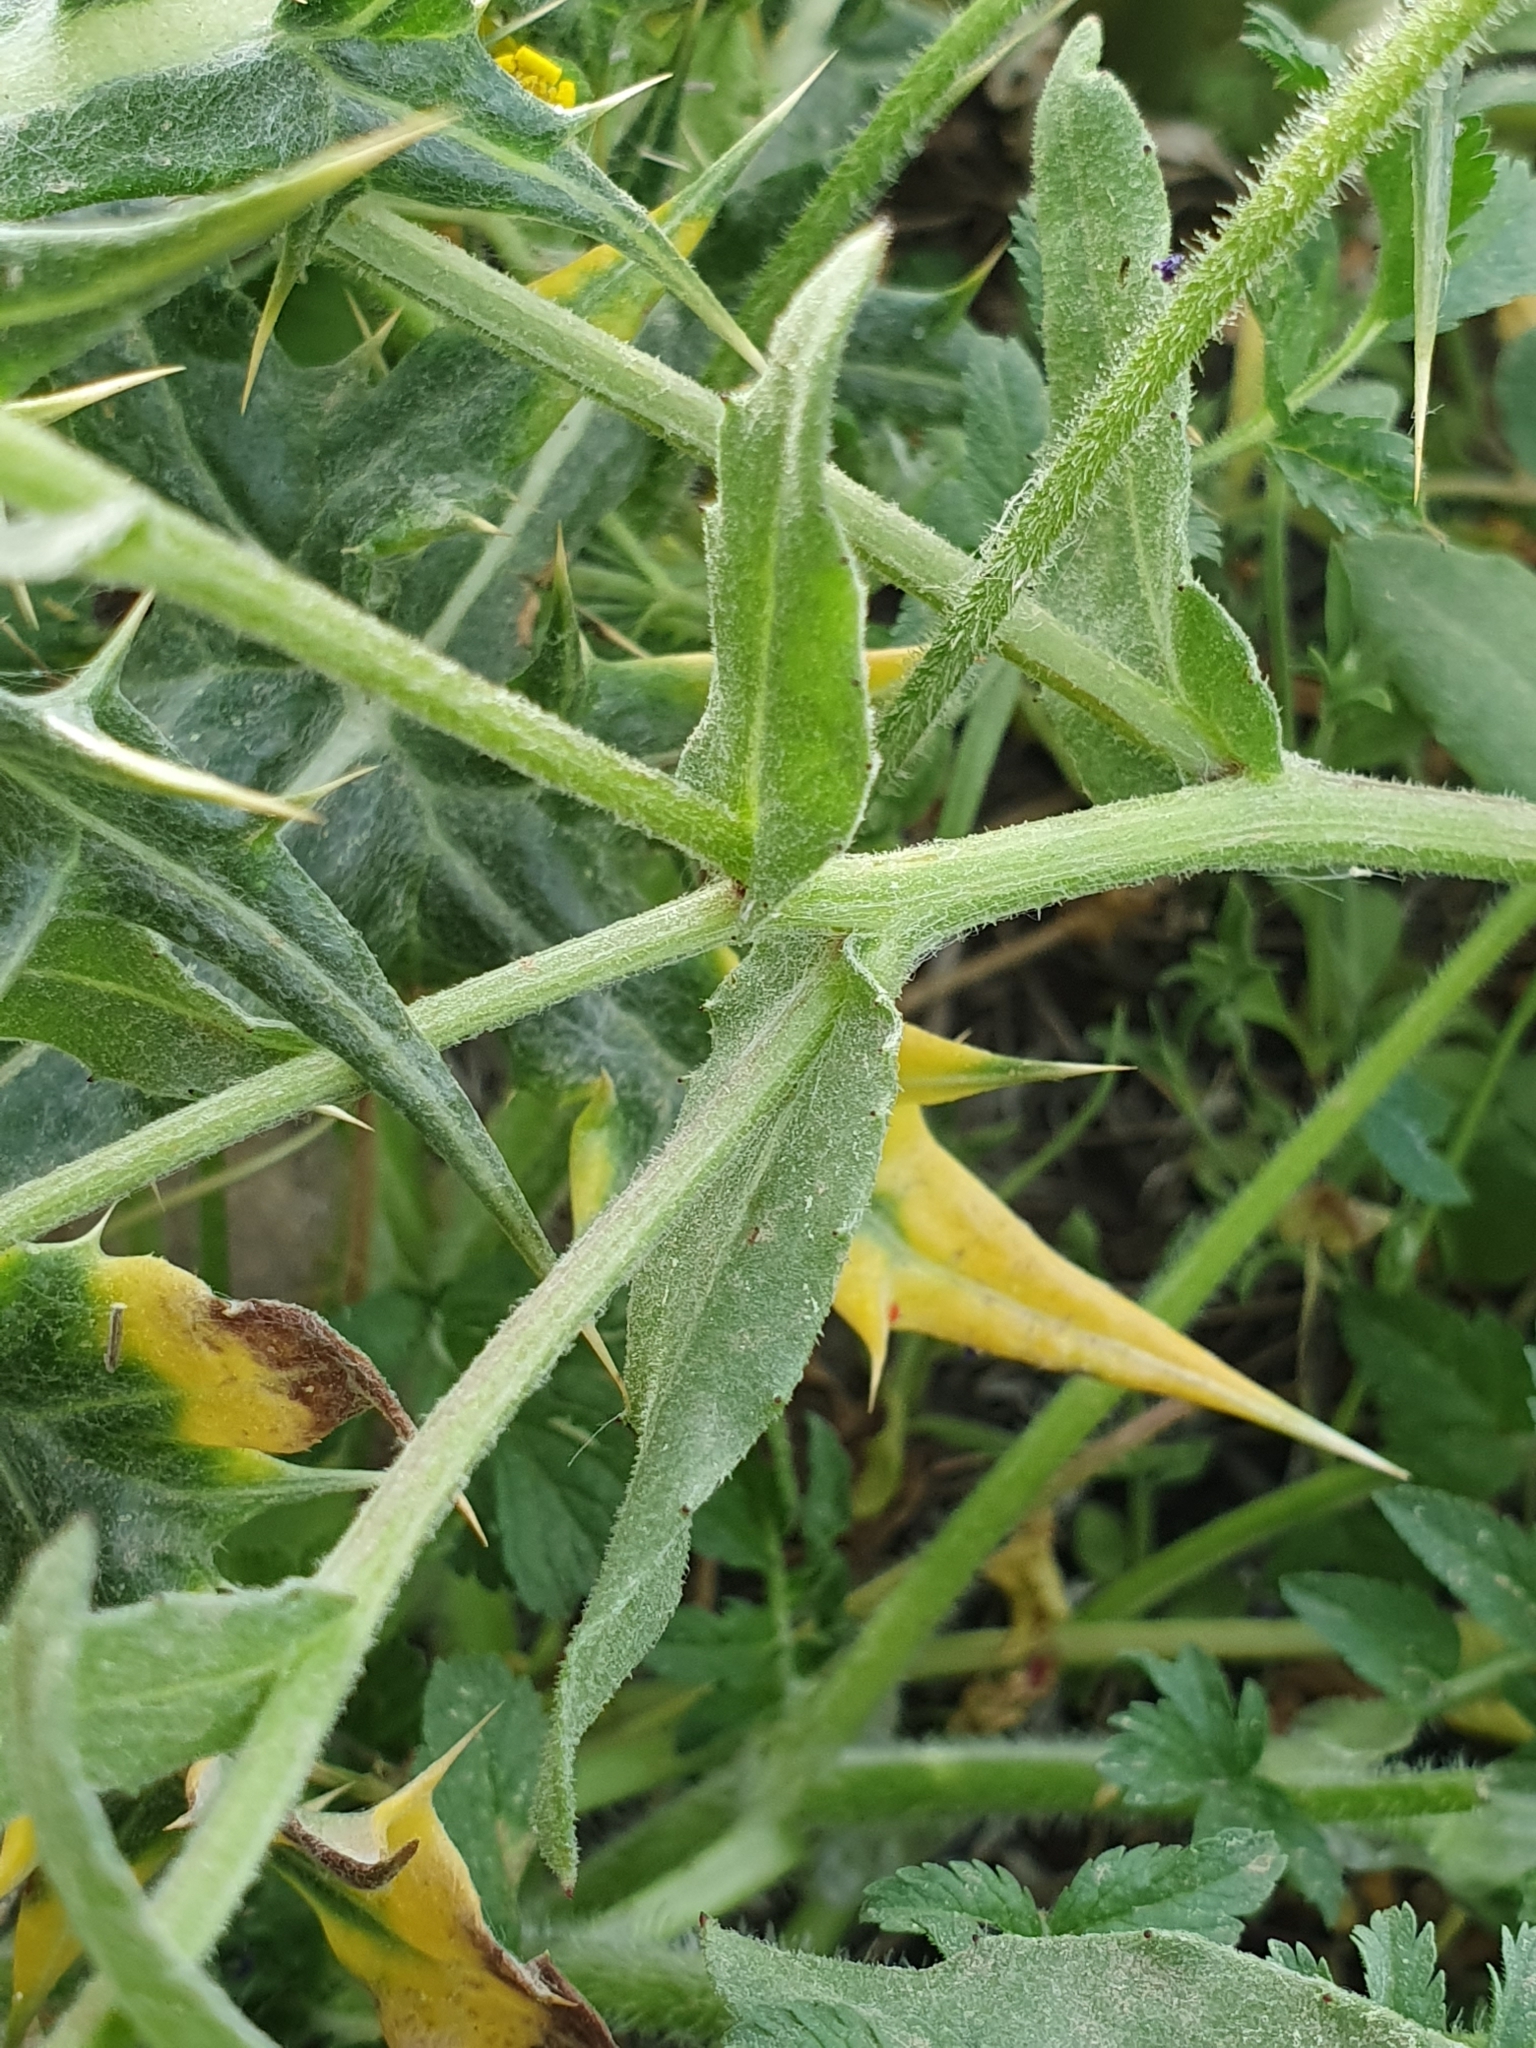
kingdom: Plantae
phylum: Tracheophyta
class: Magnoliopsida
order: Asterales
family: Asteraceae
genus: Calendula
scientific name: Calendula arvensis
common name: Field marigold
